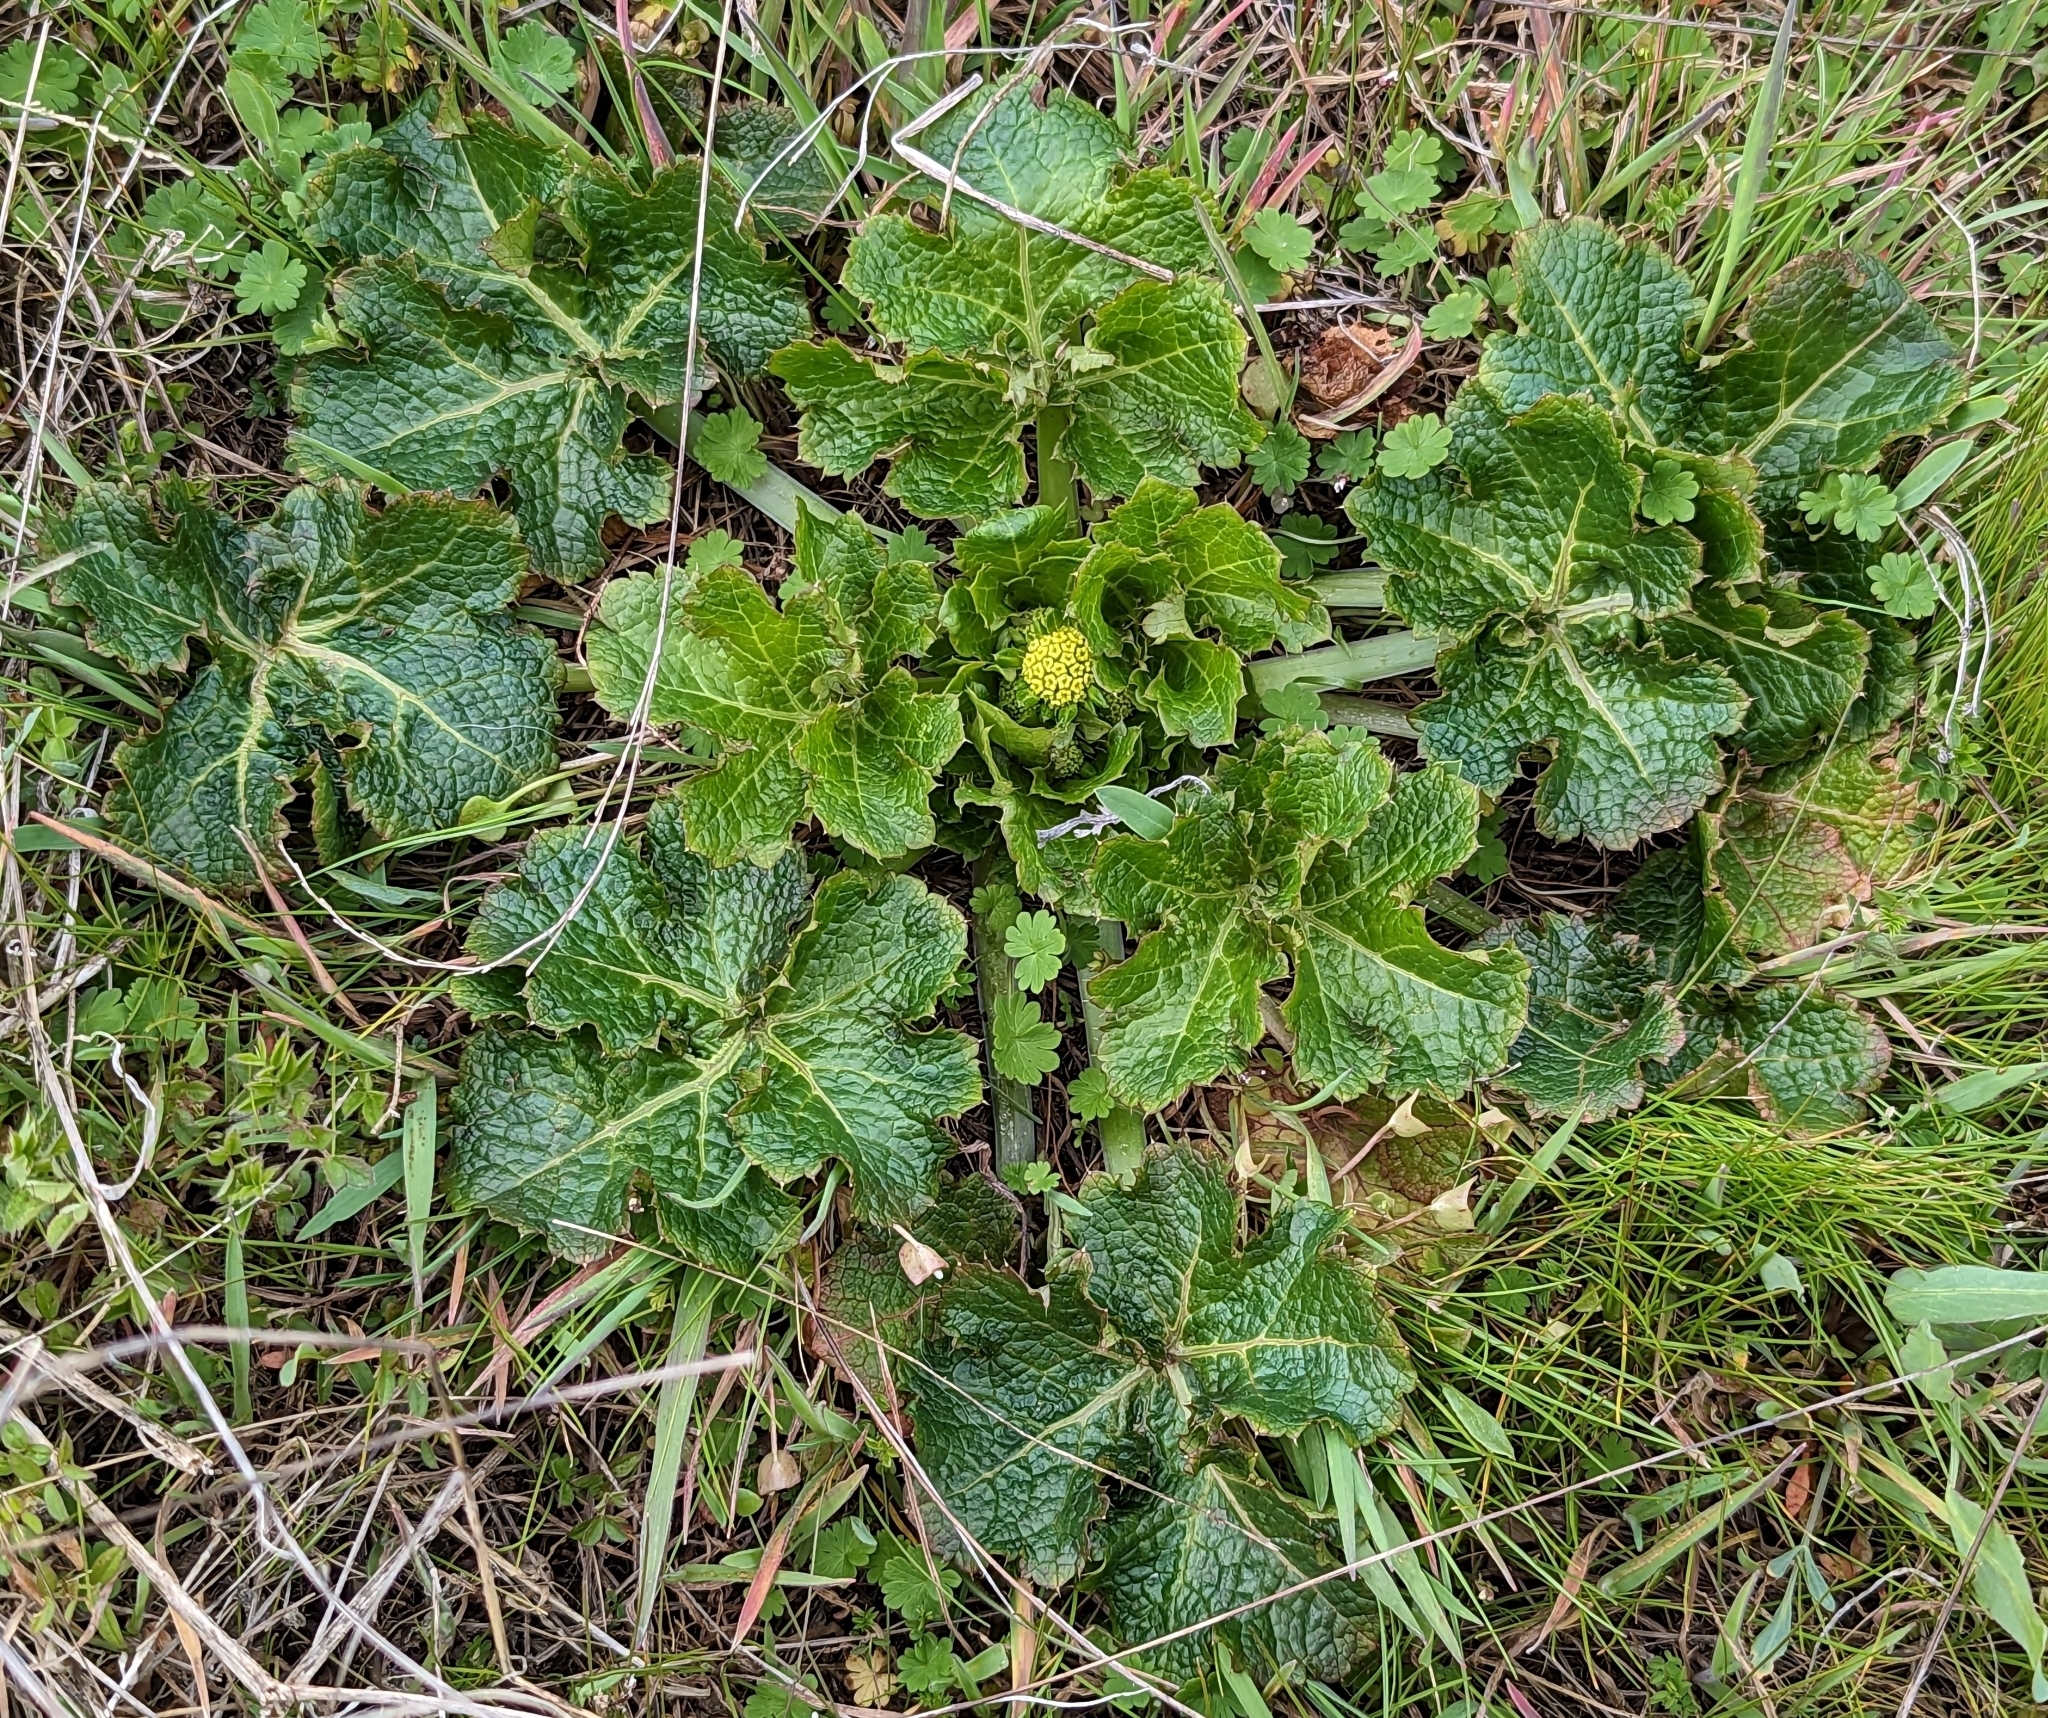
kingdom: Plantae
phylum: Tracheophyta
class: Magnoliopsida
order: Apiales
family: Apiaceae
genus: Sanicula
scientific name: Sanicula crassicaulis
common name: Western snakeroot
